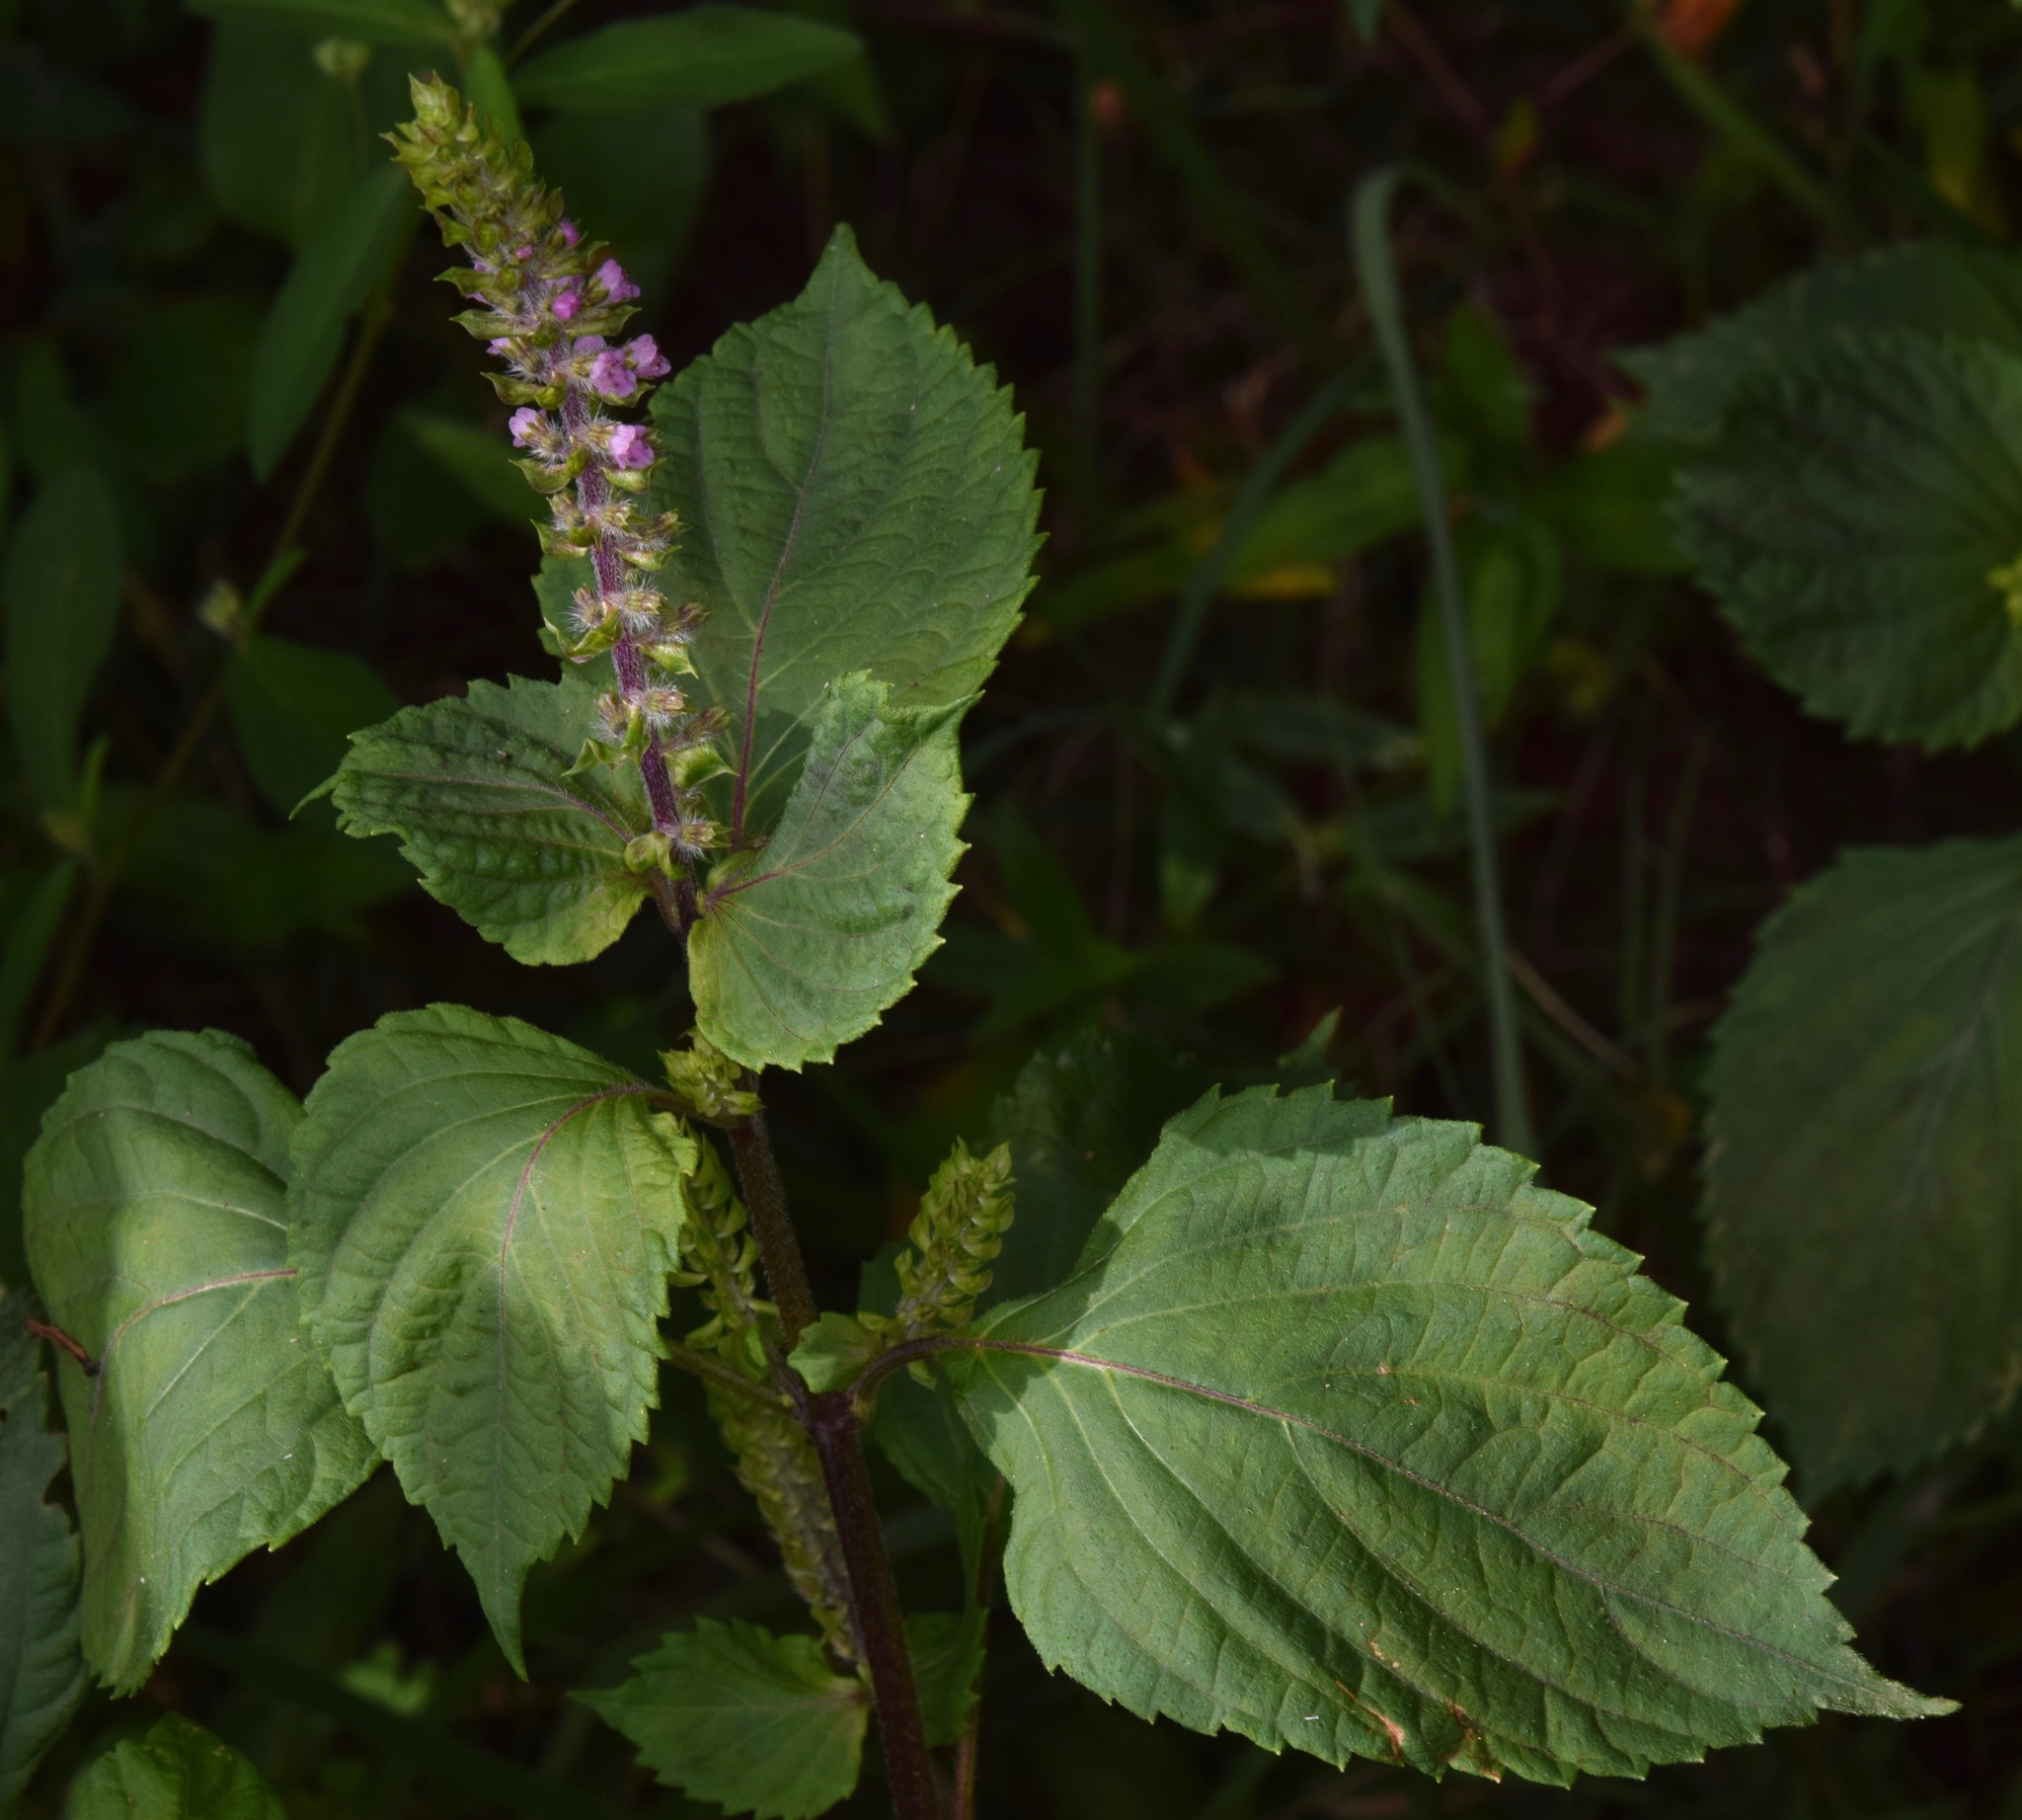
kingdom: Plantae
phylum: Tracheophyta
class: Magnoliopsida
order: Lamiales
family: Lamiaceae
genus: Perilla
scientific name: Perilla frutescens
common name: Perilla
